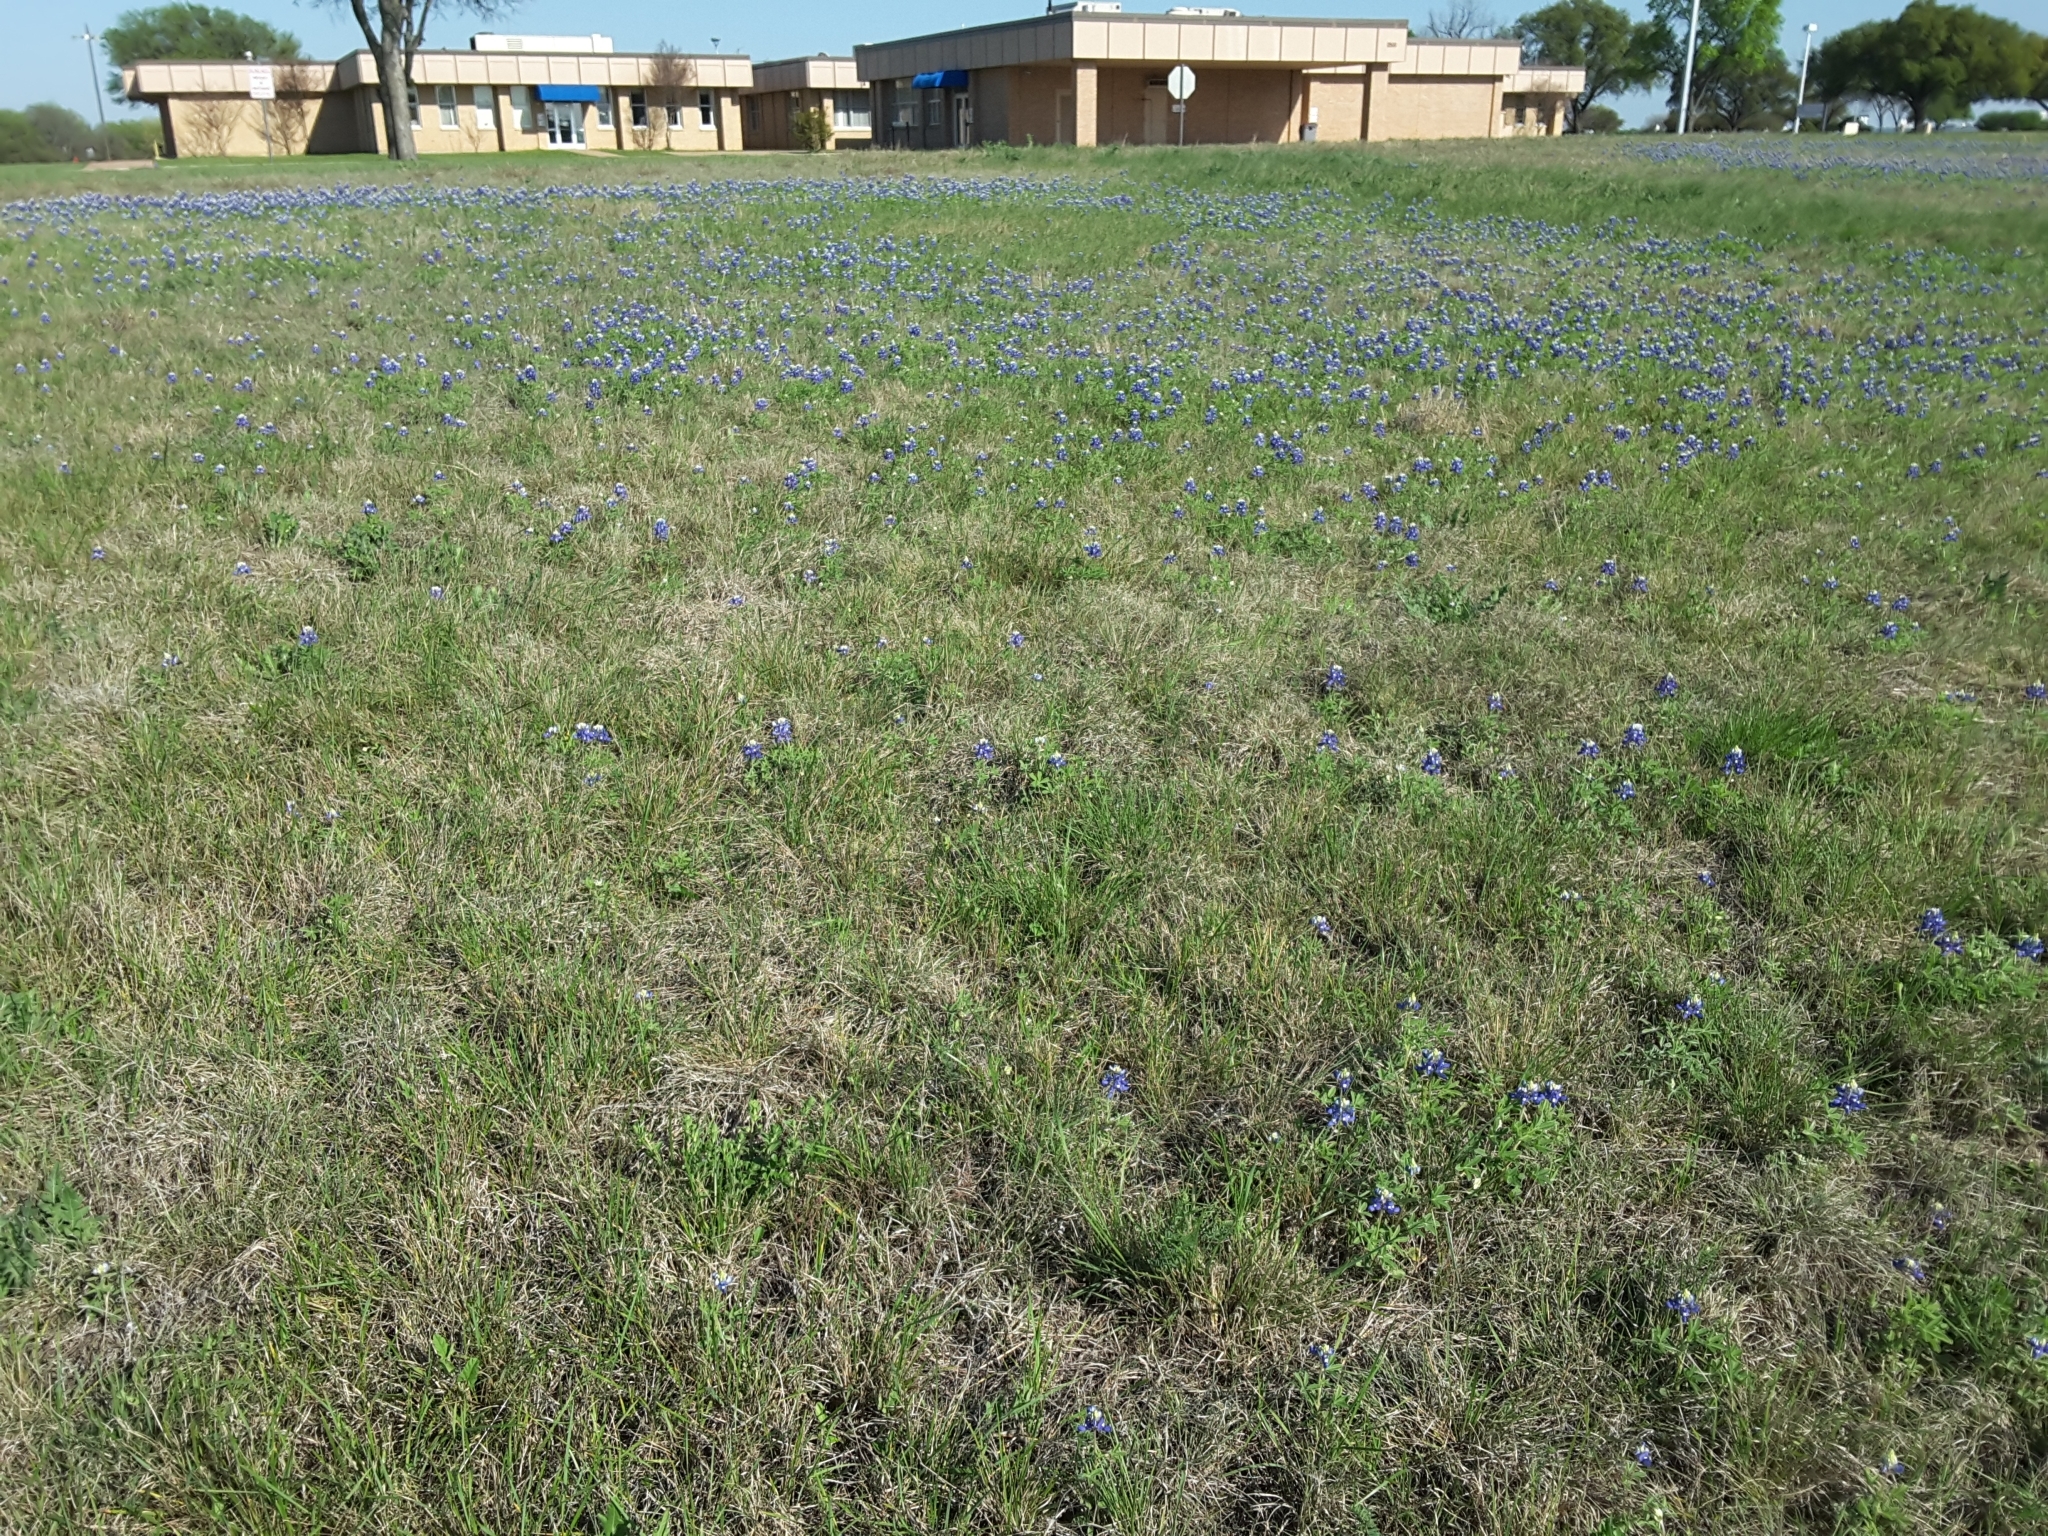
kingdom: Plantae
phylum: Tracheophyta
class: Magnoliopsida
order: Fabales
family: Fabaceae
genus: Lupinus
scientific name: Lupinus texensis
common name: Texas bluebonnet
